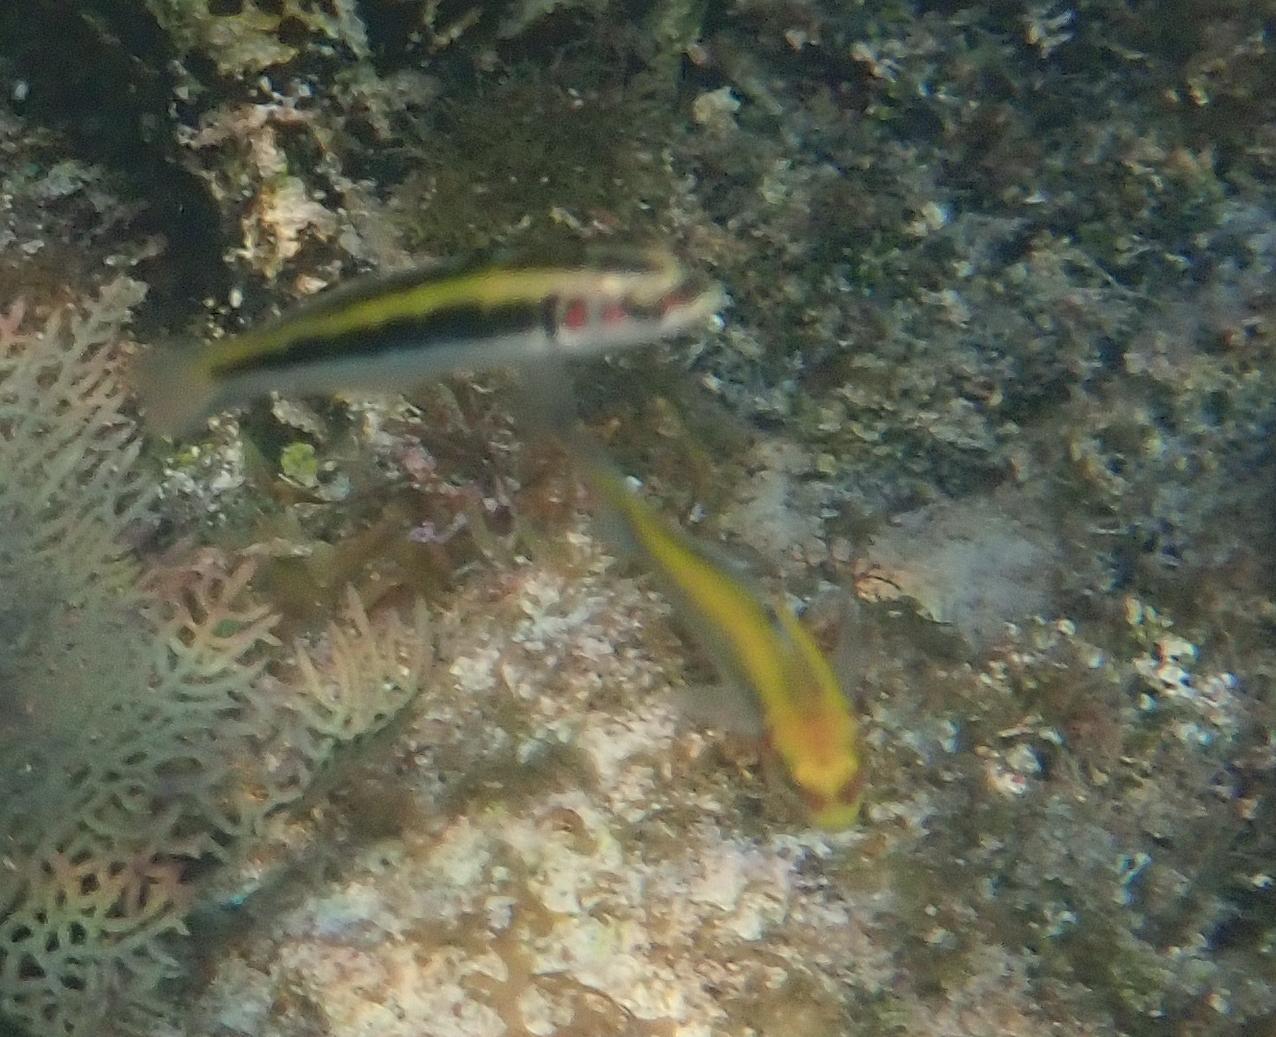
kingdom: Animalia
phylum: Chordata
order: Perciformes
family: Labridae
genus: Thalassoma
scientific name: Thalassoma bifasciatum
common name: Bluehead wrasse
